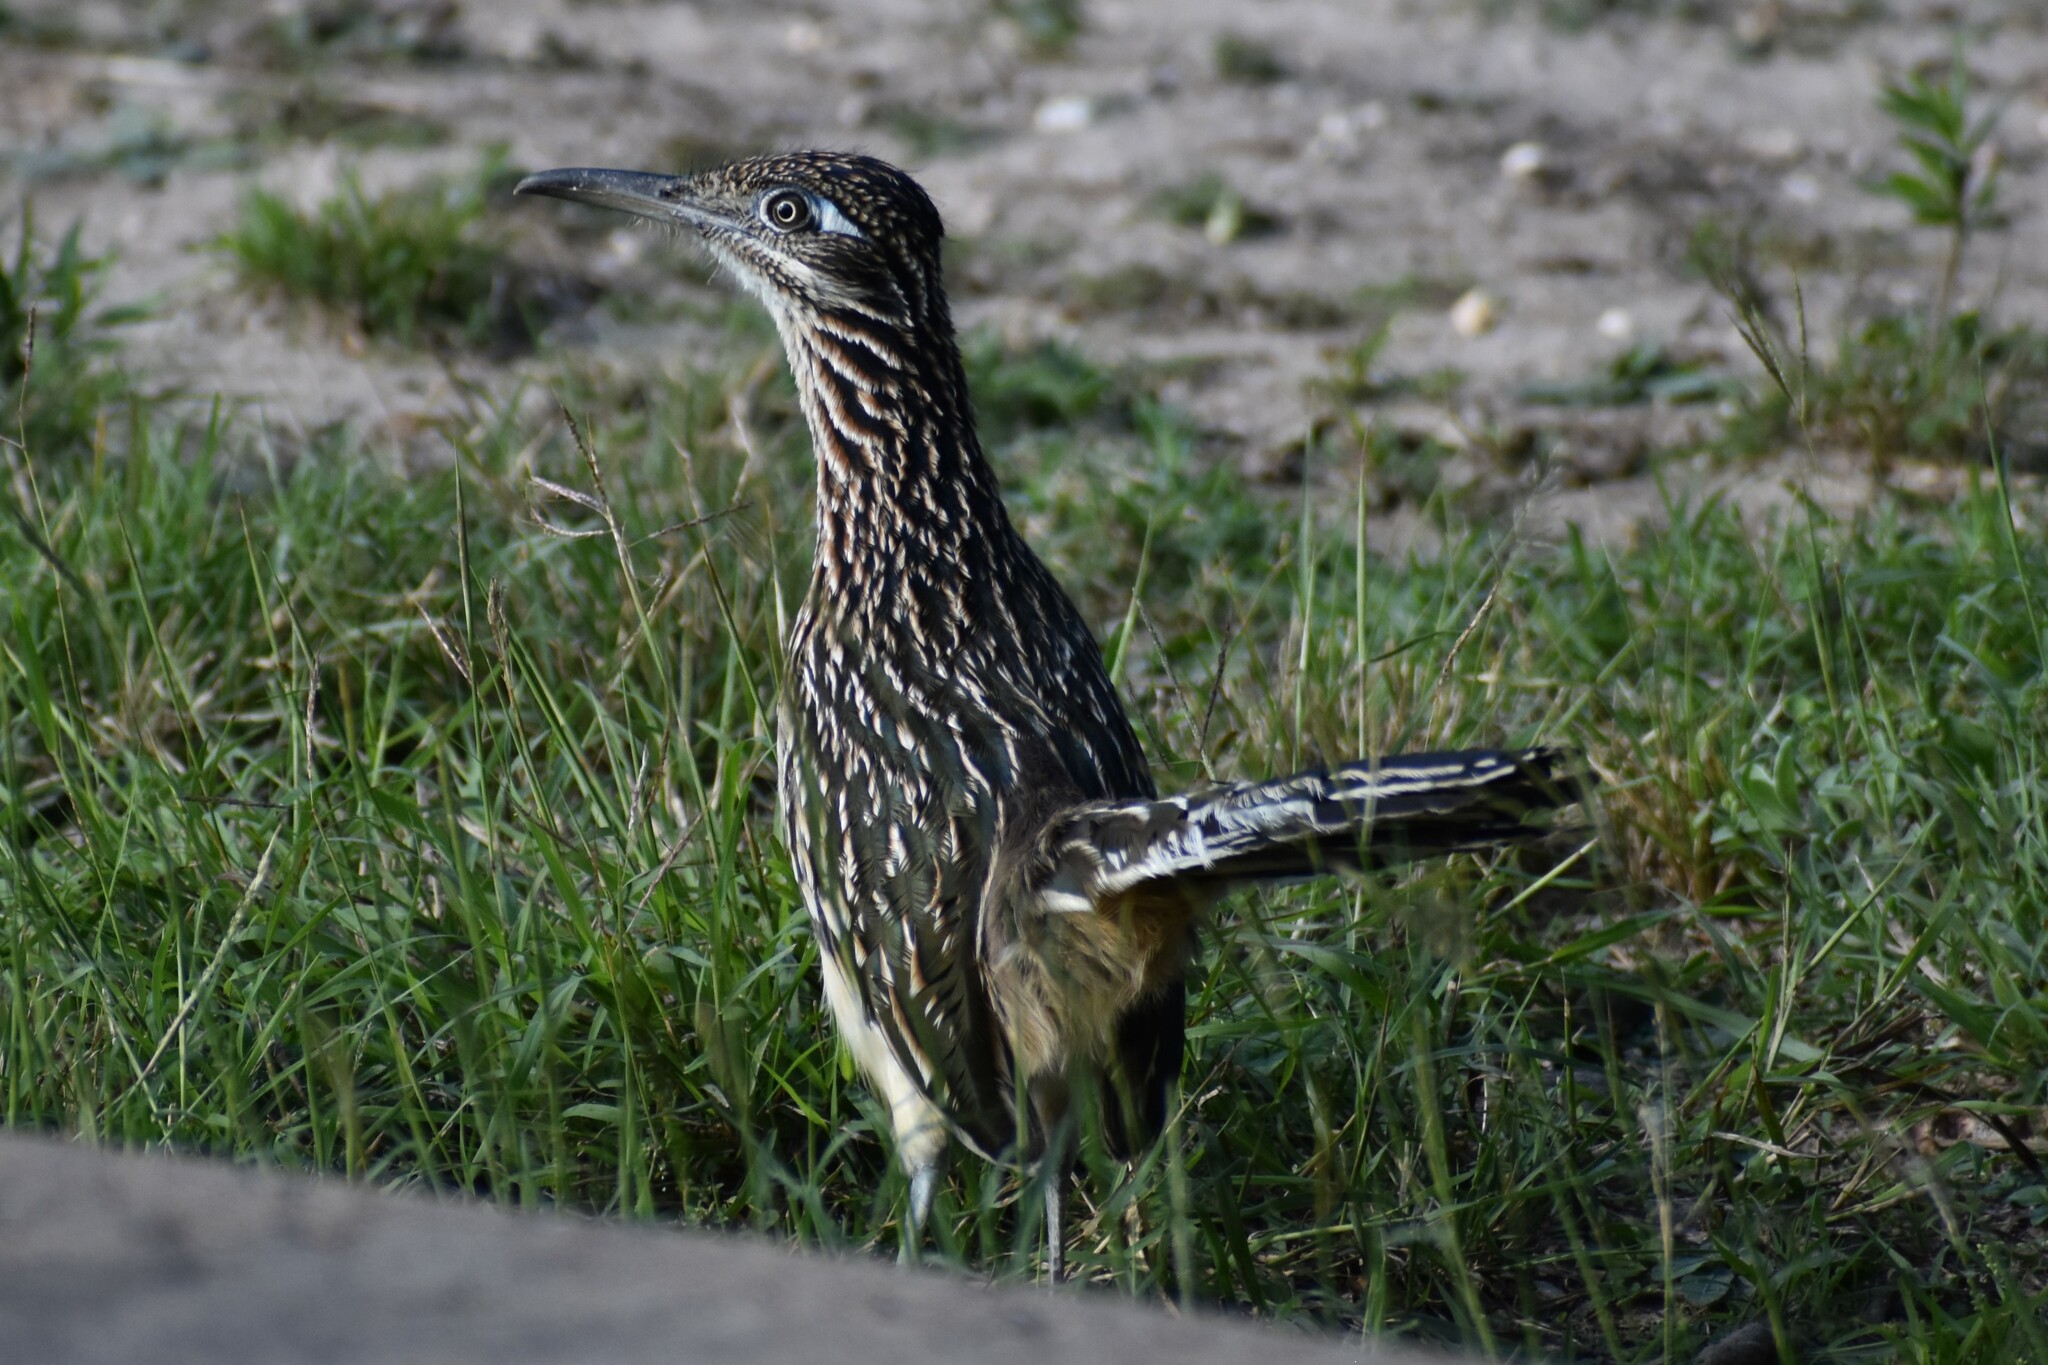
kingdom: Animalia
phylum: Chordata
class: Aves
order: Cuculiformes
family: Cuculidae
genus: Geococcyx
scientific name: Geococcyx californianus
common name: Greater roadrunner
